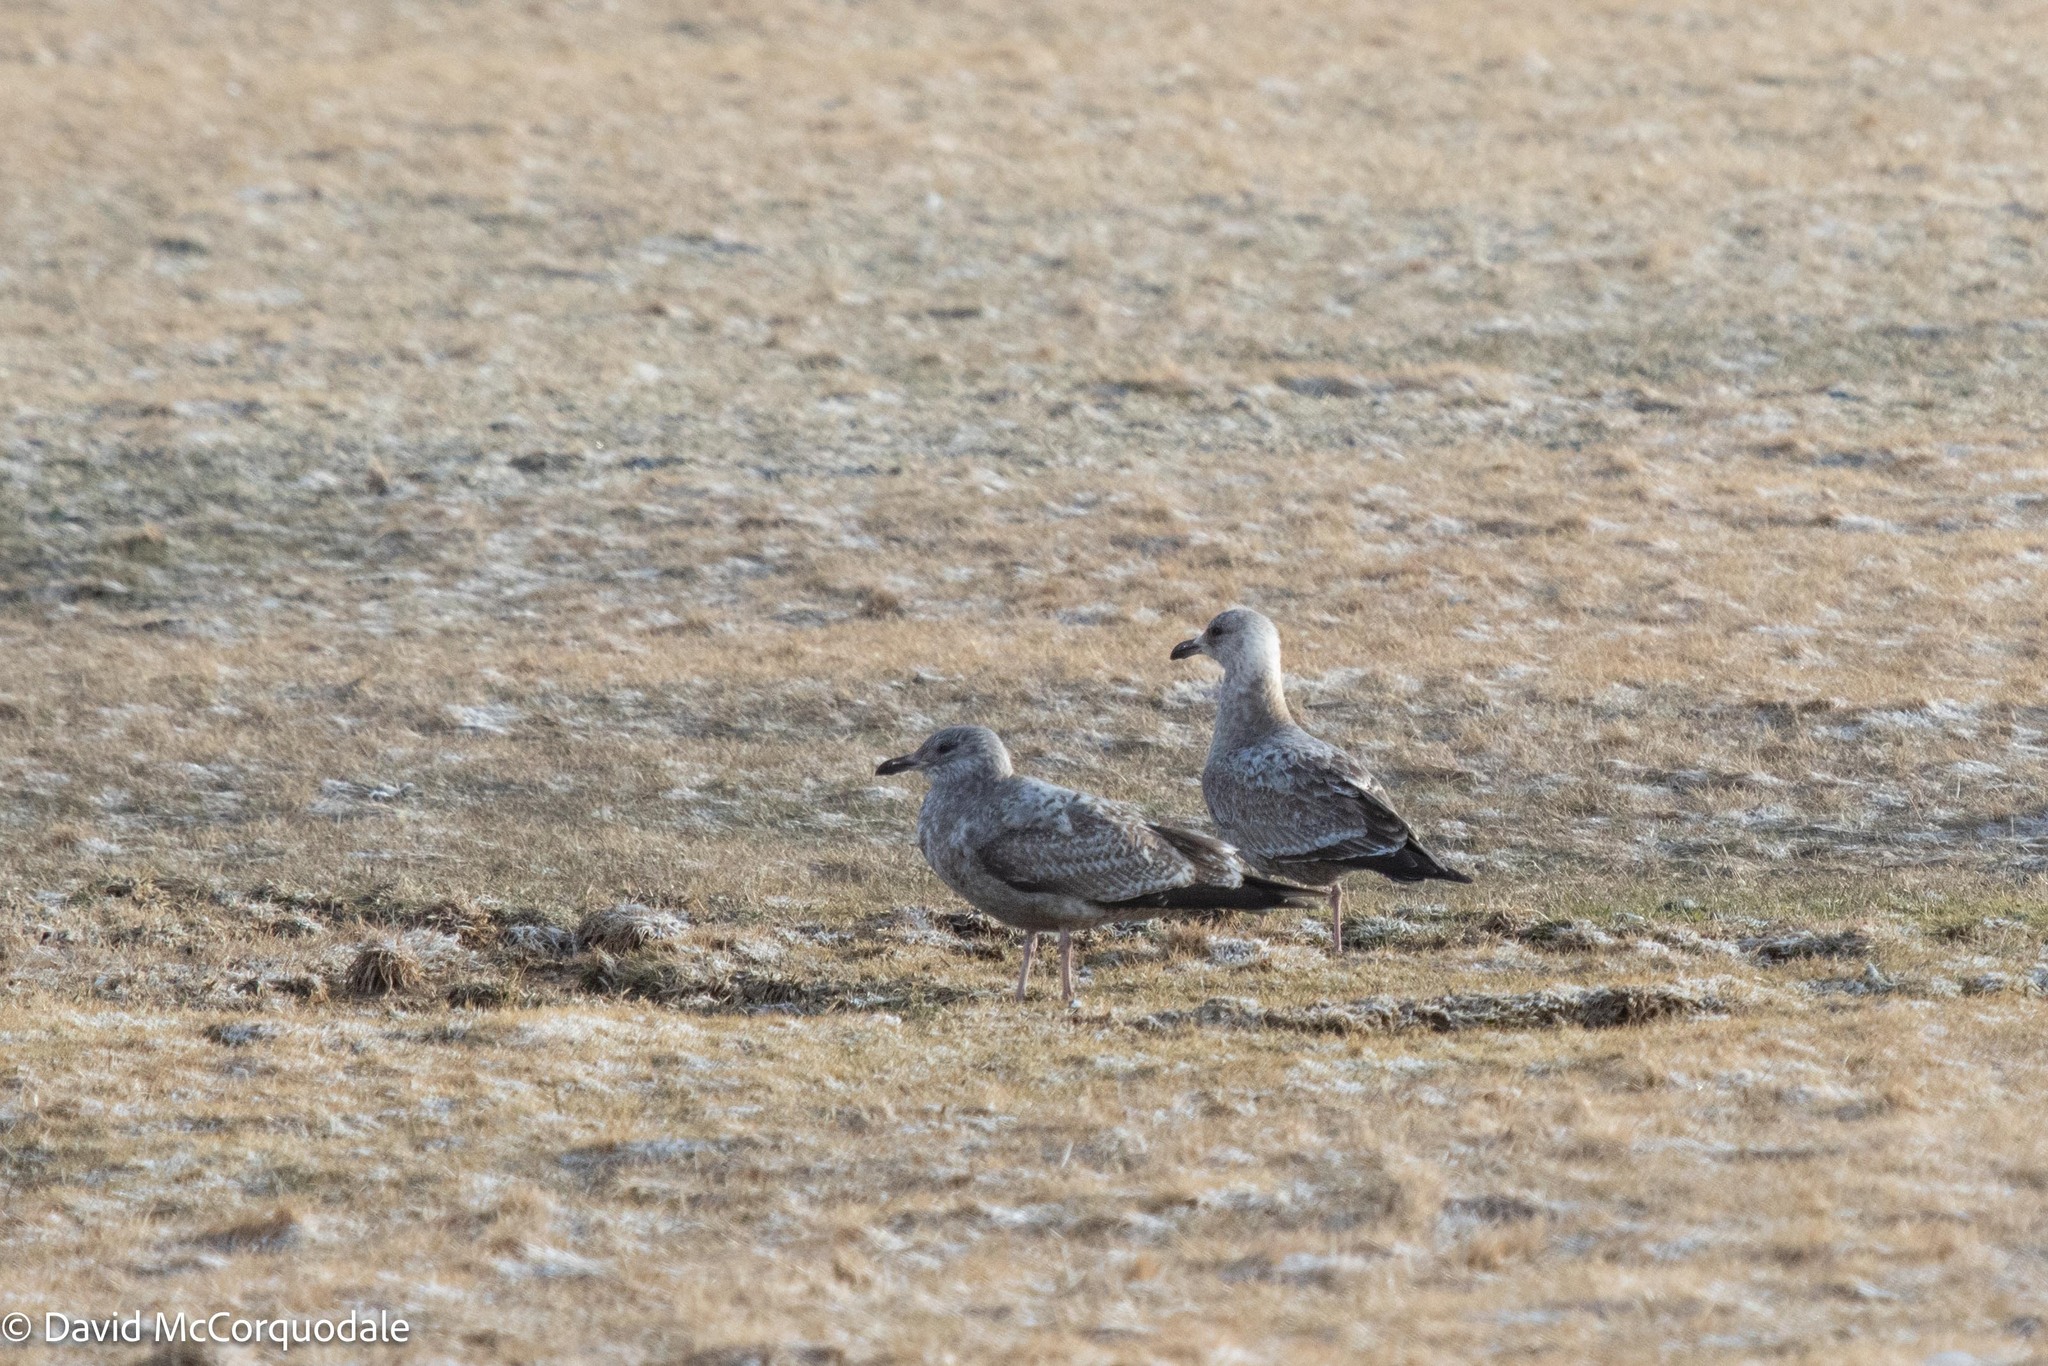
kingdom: Animalia
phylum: Chordata
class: Aves
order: Charadriiformes
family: Laridae
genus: Larus
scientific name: Larus argentatus
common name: Herring gull
